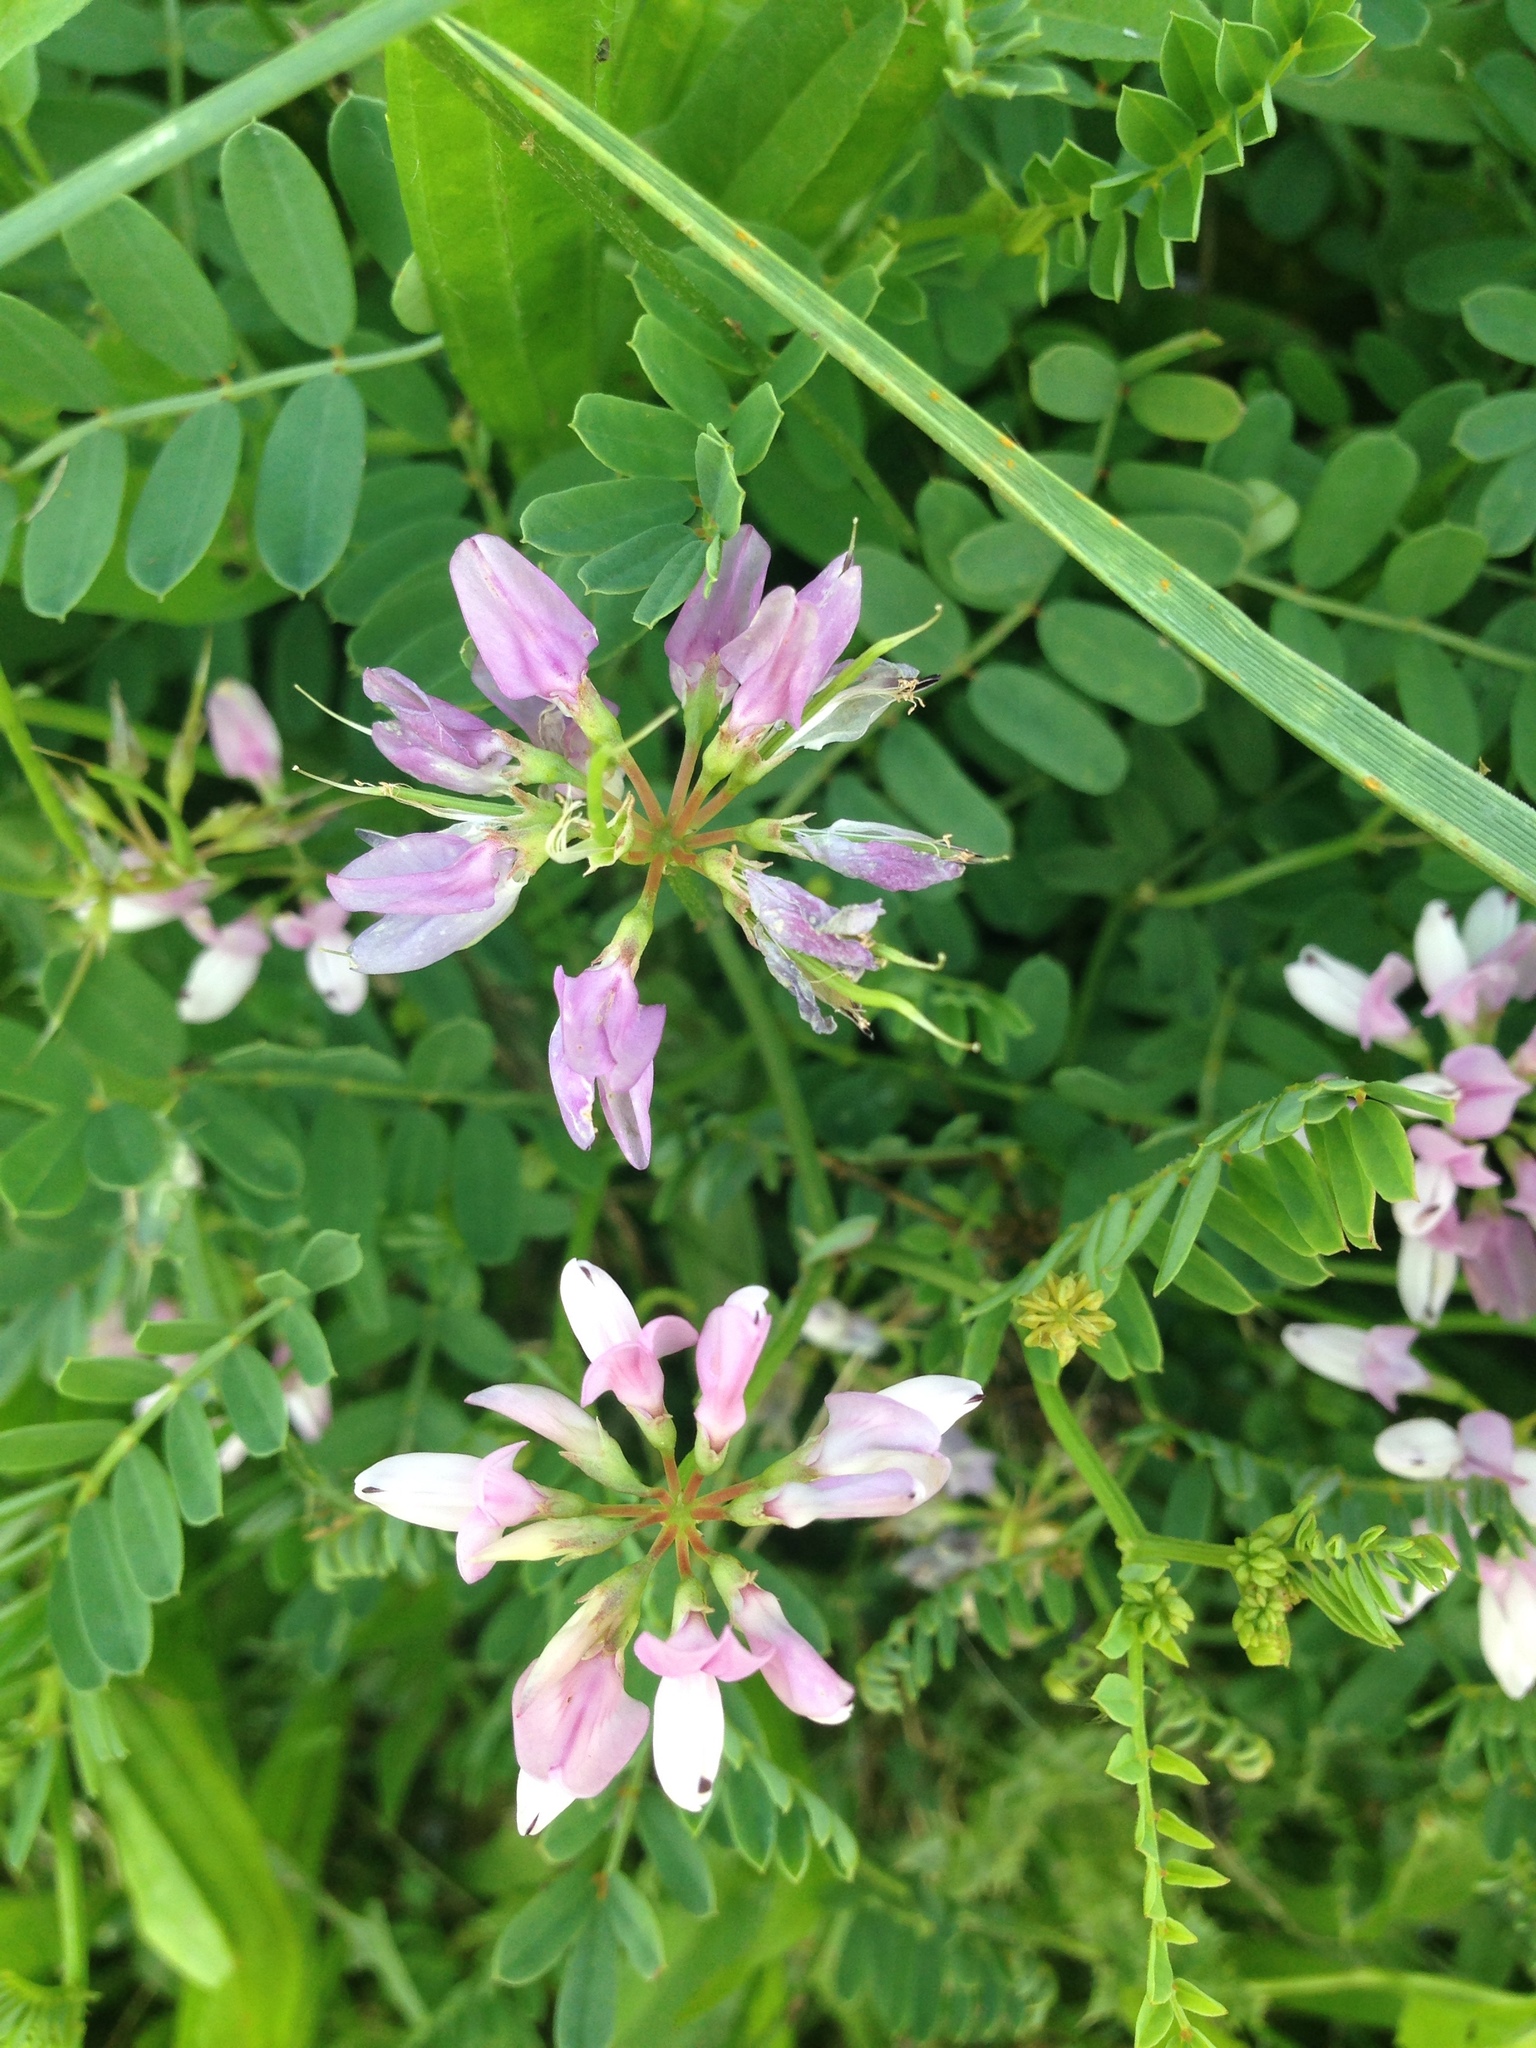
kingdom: Plantae
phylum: Tracheophyta
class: Magnoliopsida
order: Fabales
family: Fabaceae
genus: Coronilla
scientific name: Coronilla varia
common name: Crownvetch
